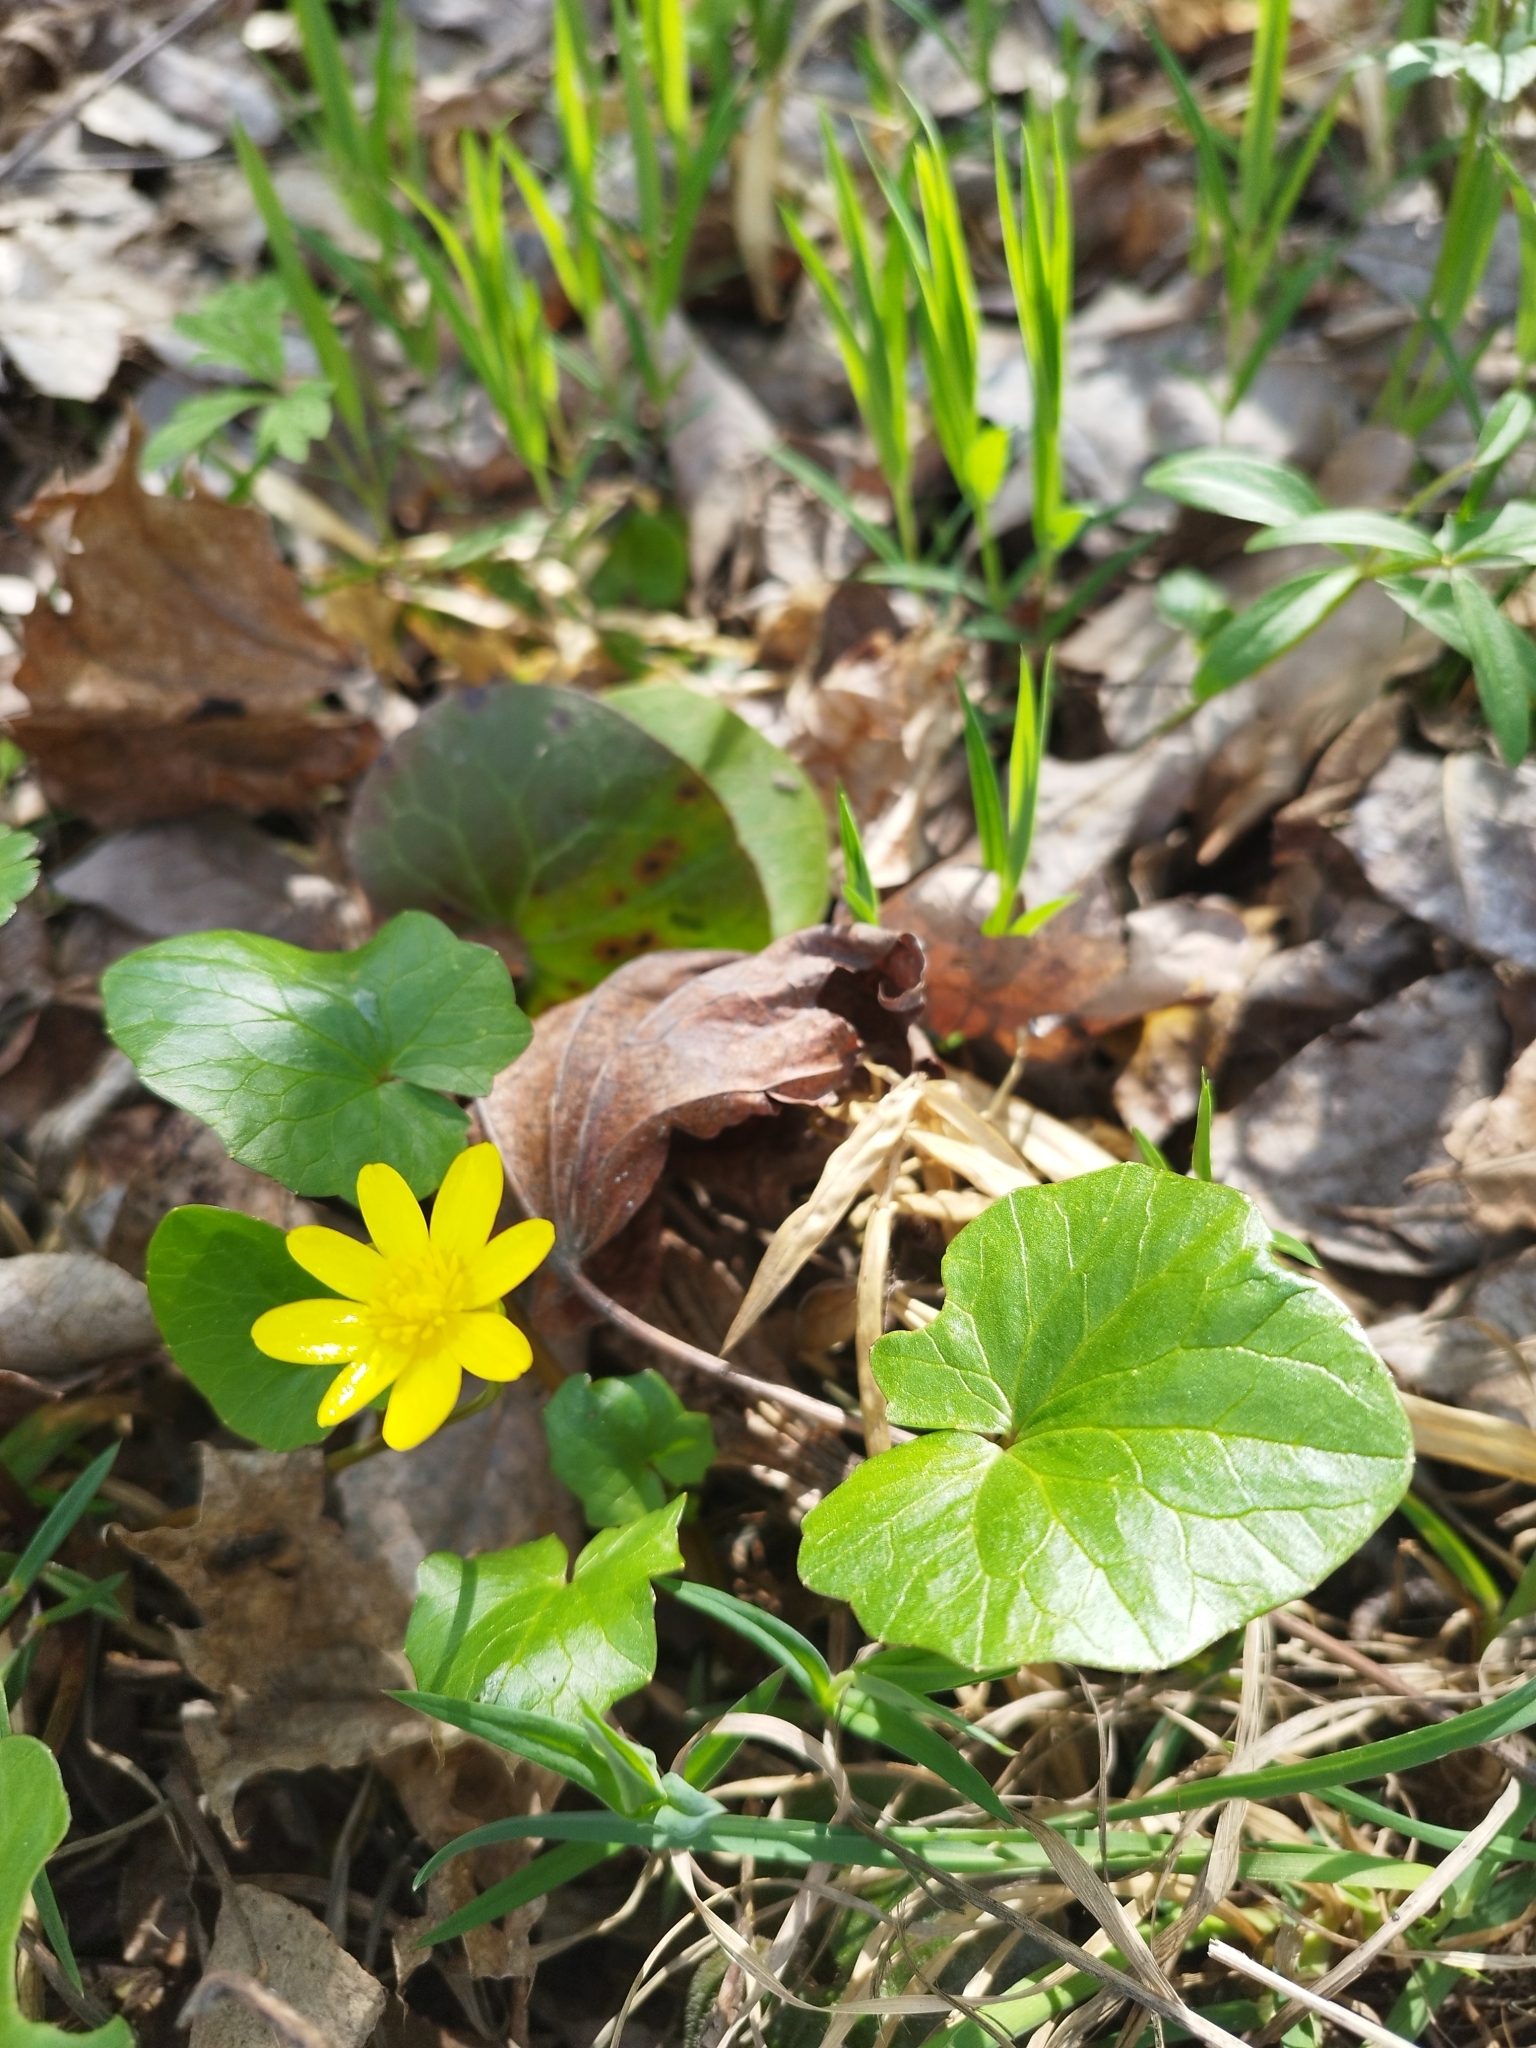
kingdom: Plantae
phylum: Tracheophyta
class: Magnoliopsida
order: Ranunculales
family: Ranunculaceae
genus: Ficaria
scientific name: Ficaria verna
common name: Lesser celandine
